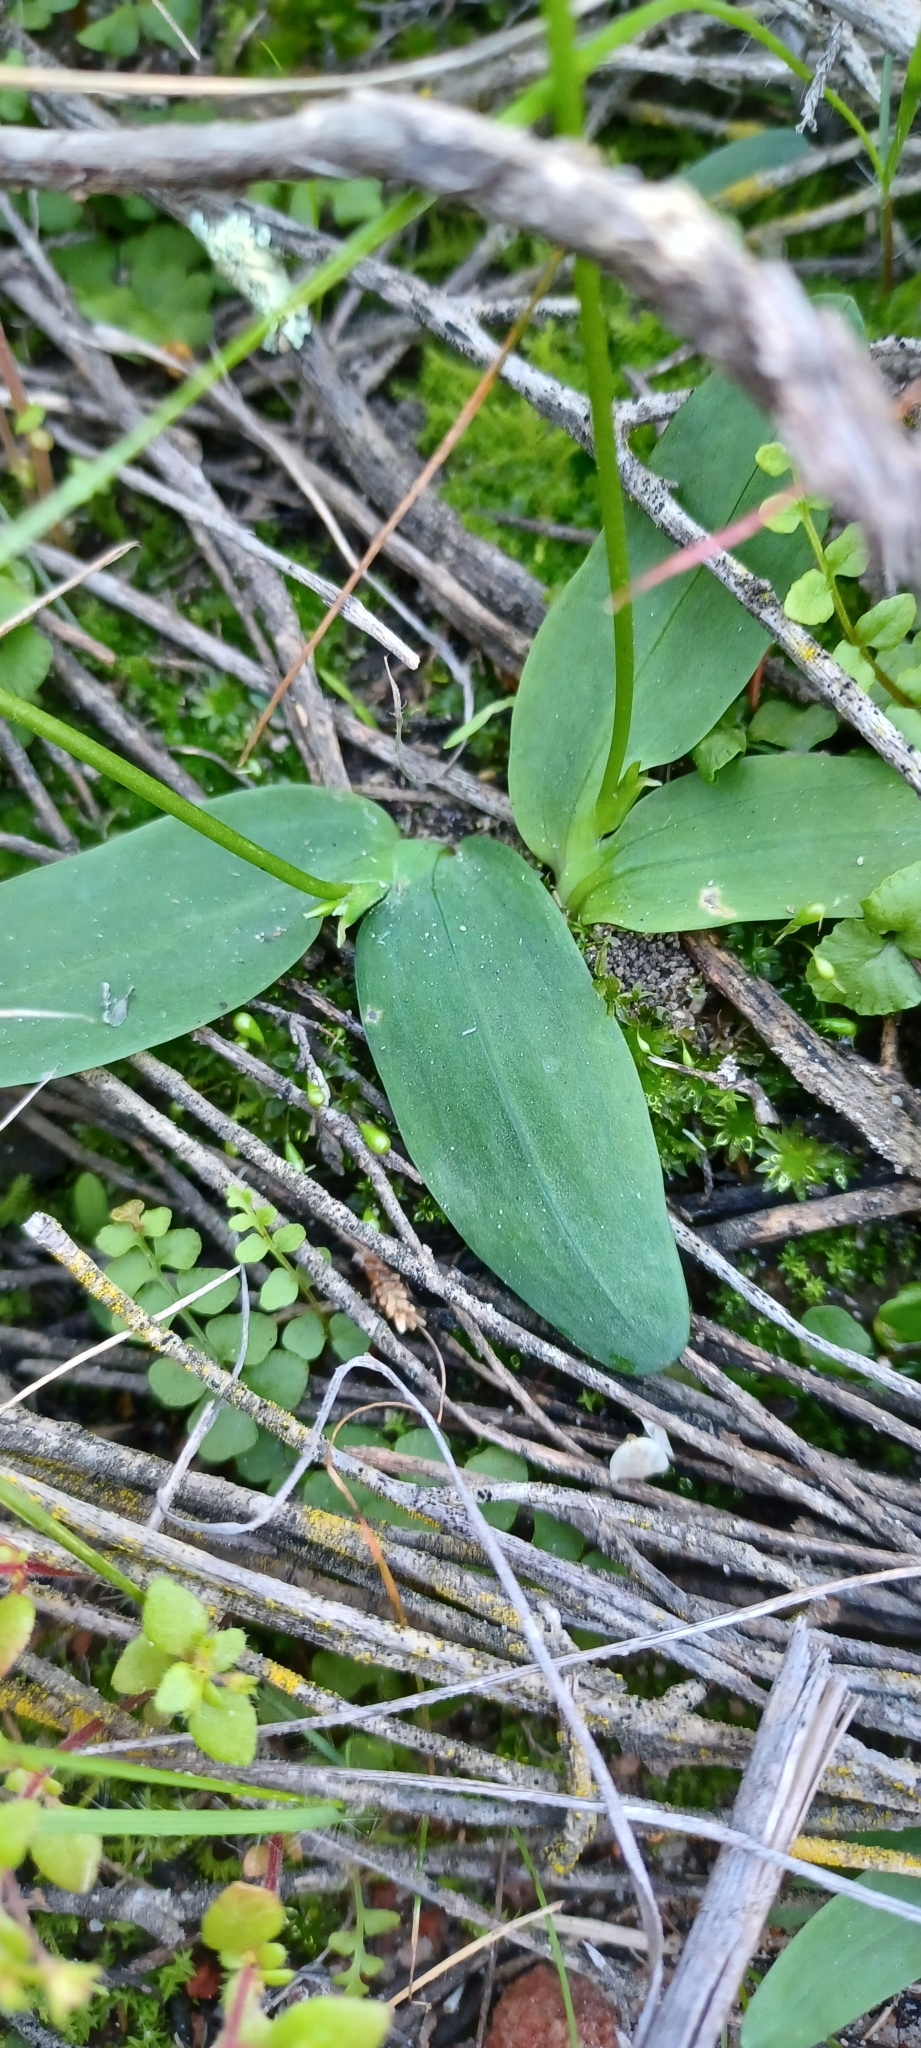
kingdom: Plantae
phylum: Tracheophyta
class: Liliopsida
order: Asparagales
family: Iridaceae
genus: Xenoscapa
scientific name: Xenoscapa fistulosa
